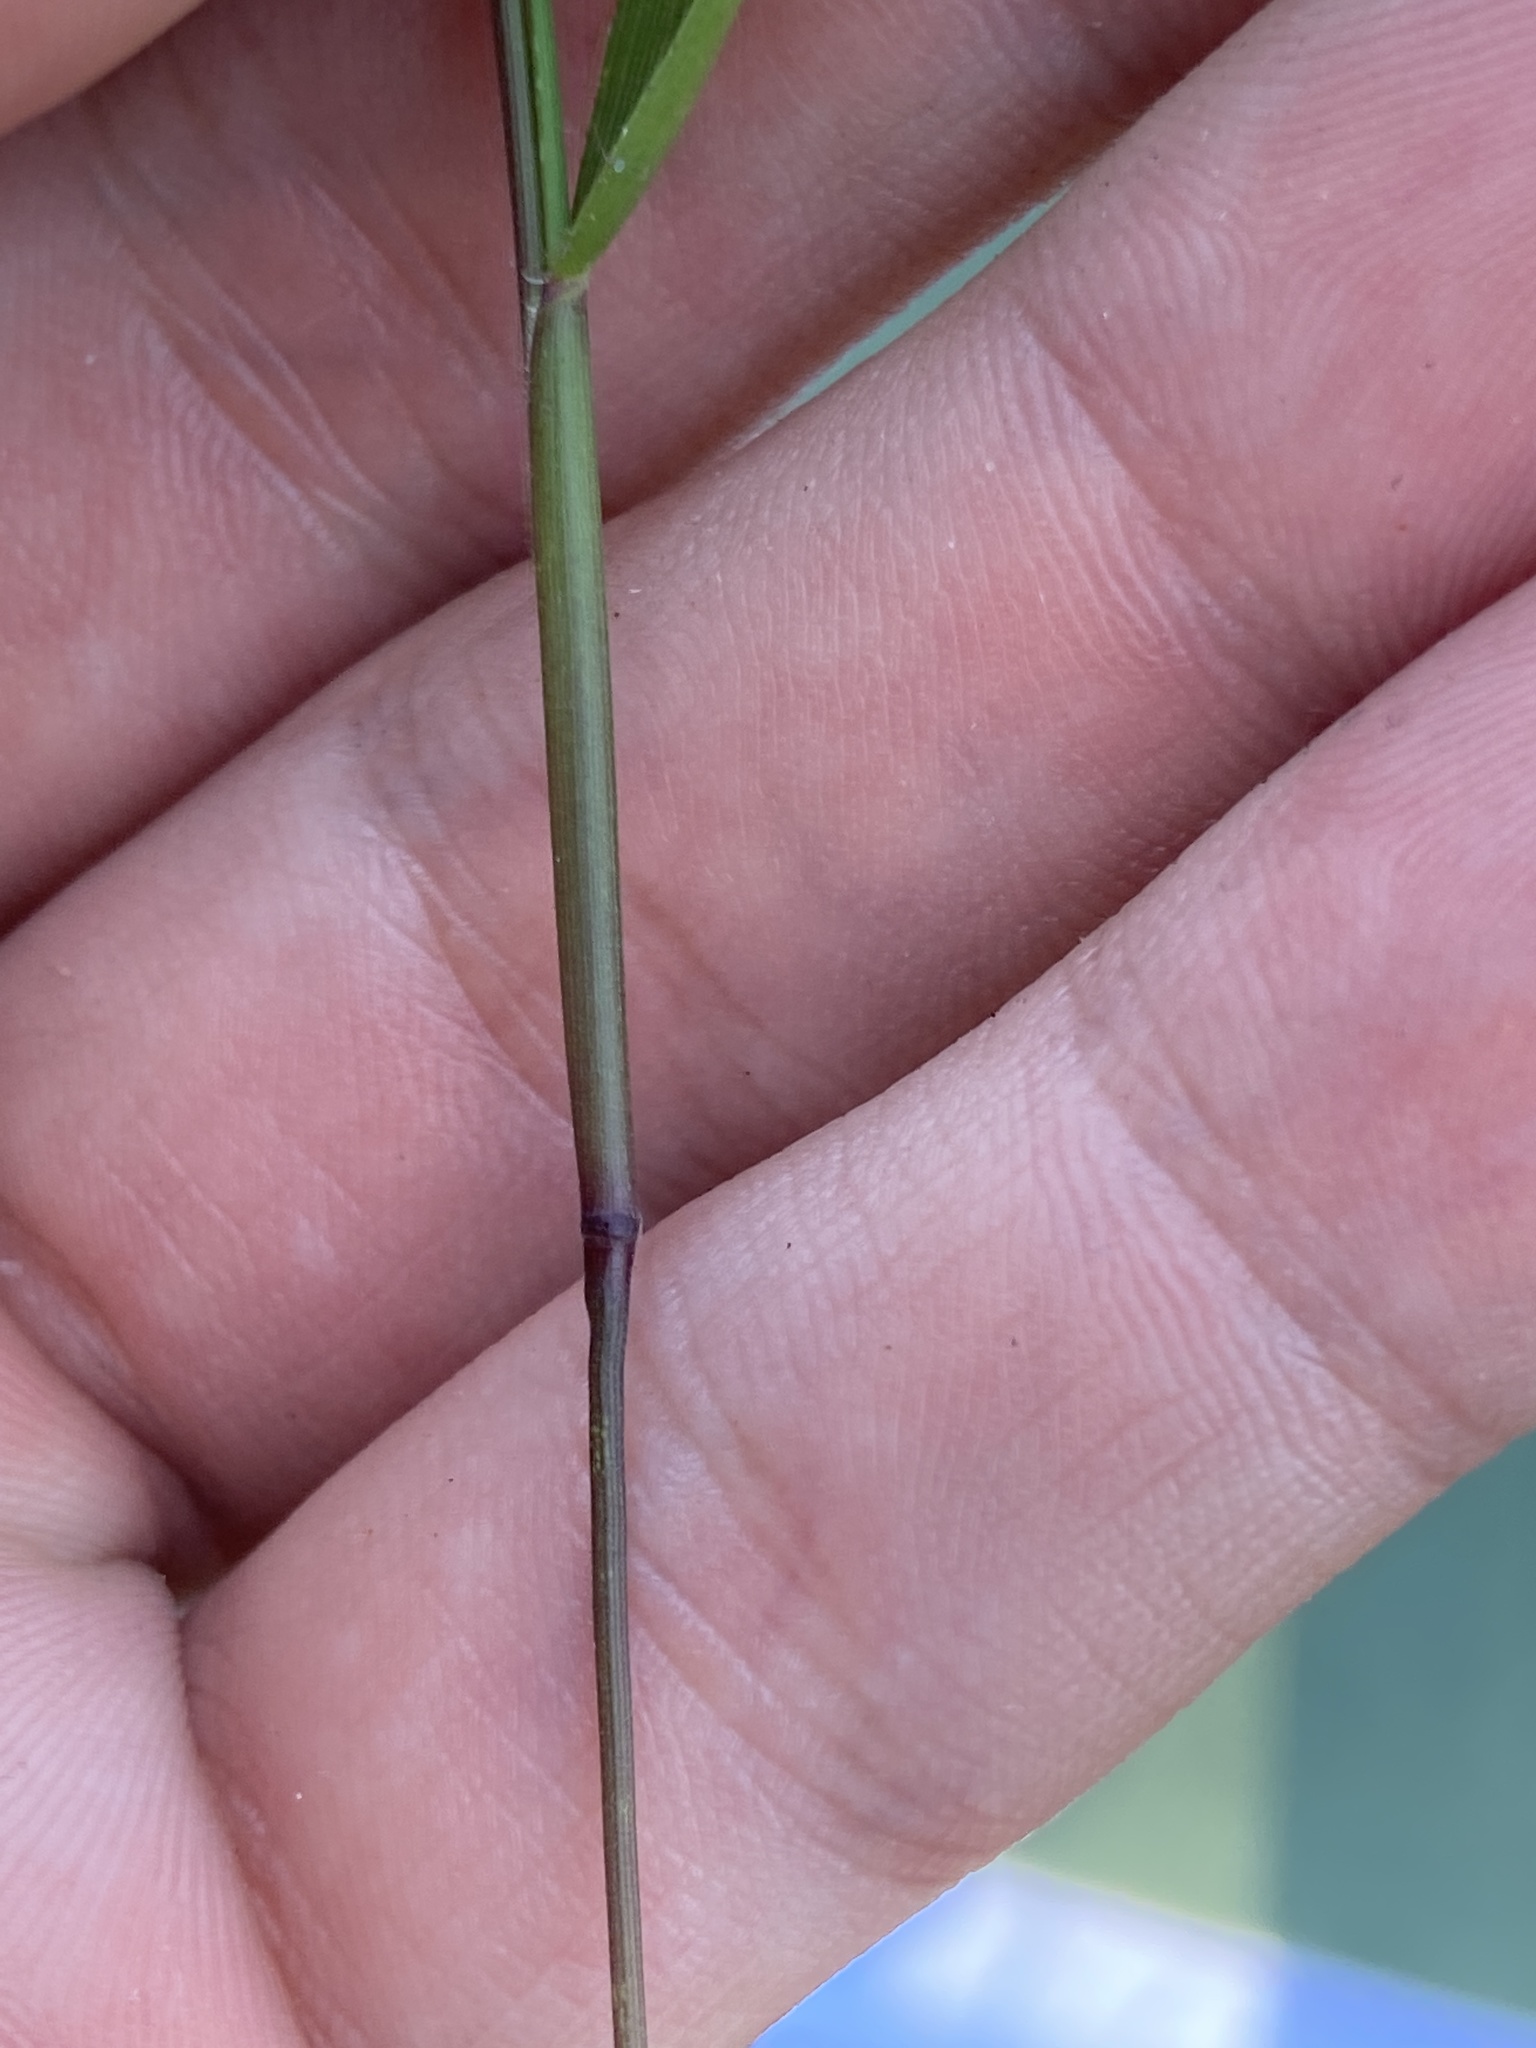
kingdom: Plantae
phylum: Tracheophyta
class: Liliopsida
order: Poales
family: Poaceae
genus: Dichanthelium
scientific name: Dichanthelium portoricense
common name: American panicgrass
